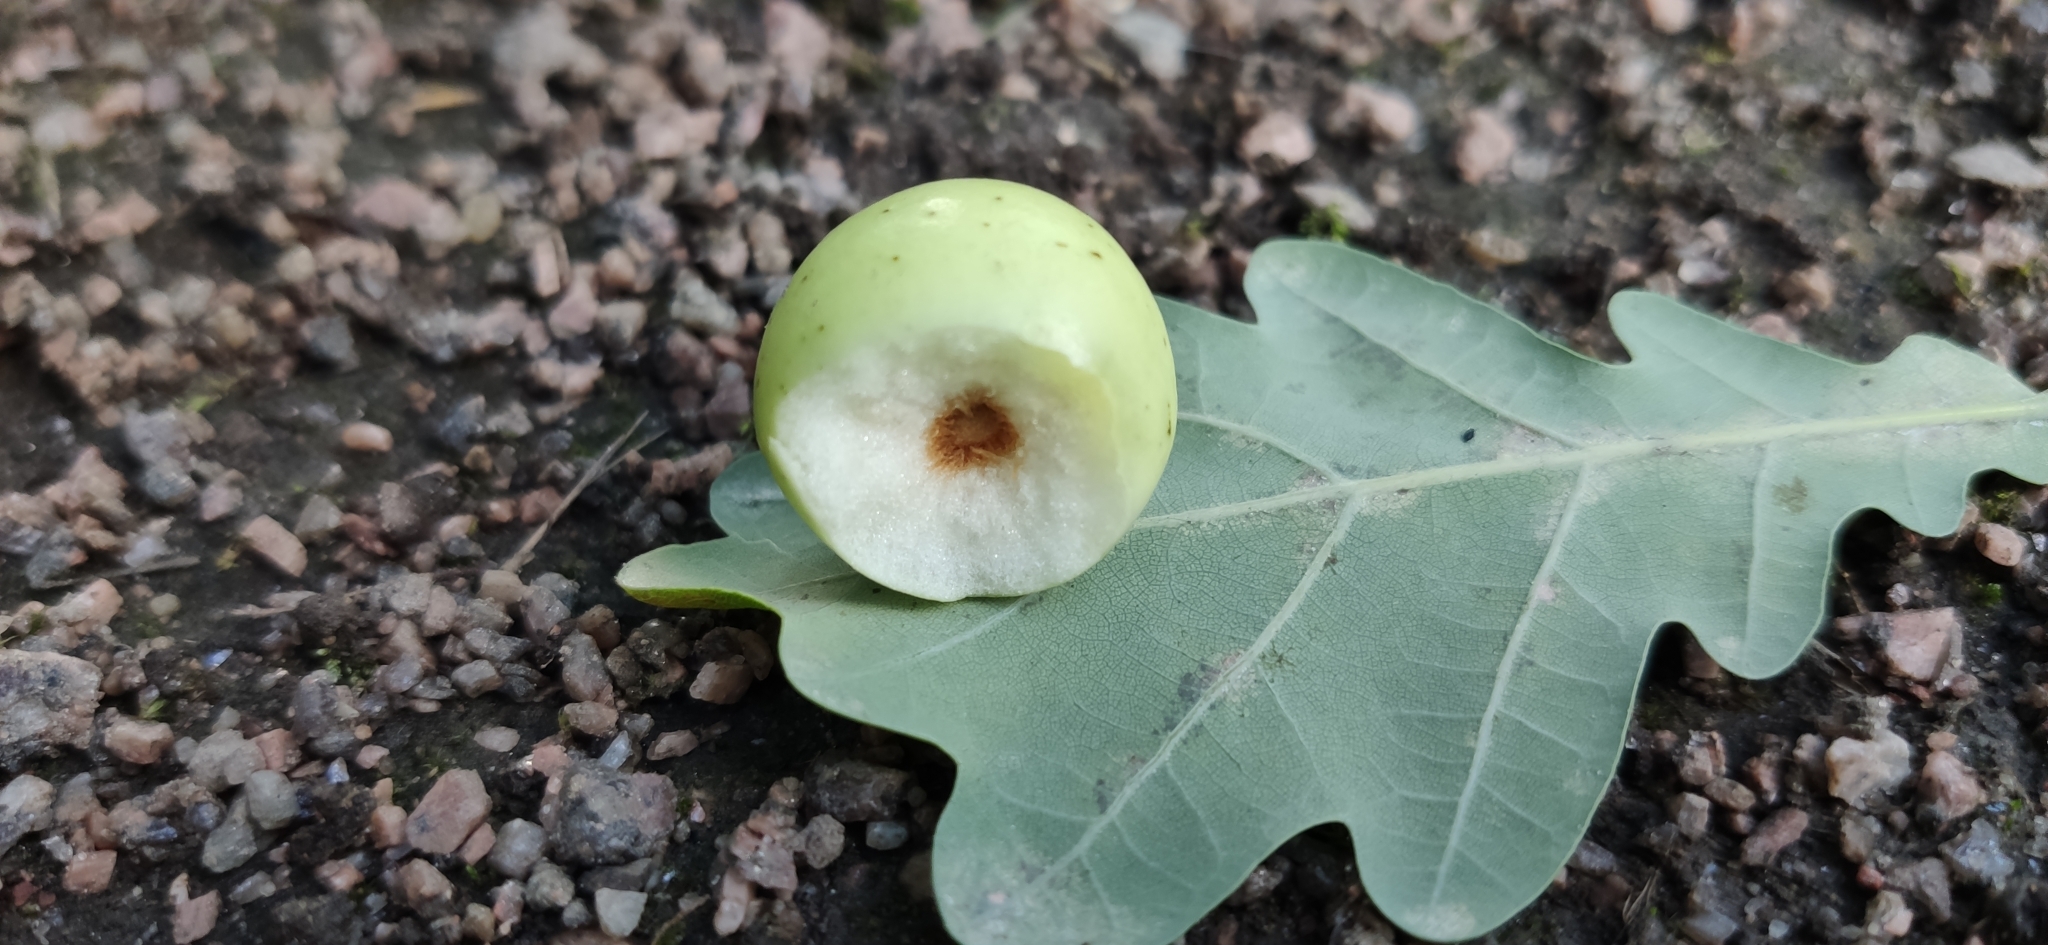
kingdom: Animalia
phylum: Arthropoda
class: Insecta
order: Hymenoptera
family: Cynipidae
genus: Cynips
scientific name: Cynips quercusfolii
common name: Cherry gall
